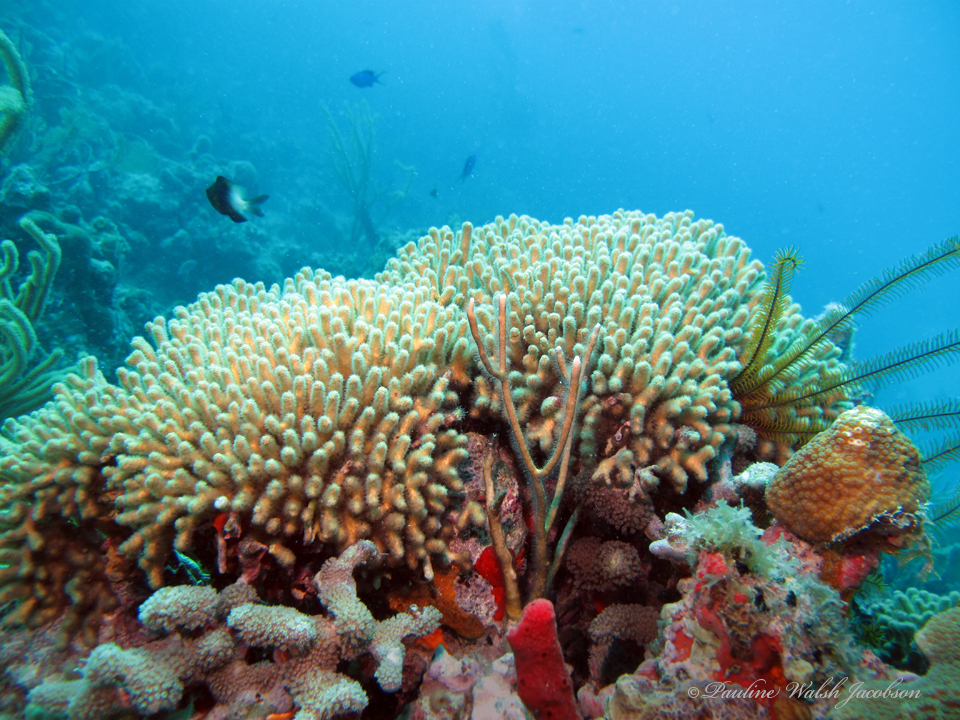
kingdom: Animalia
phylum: Cnidaria
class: Anthozoa
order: Scleractinia
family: Pocilloporidae
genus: Madracis
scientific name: Madracis auretenra
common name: Yellow pencil coral
